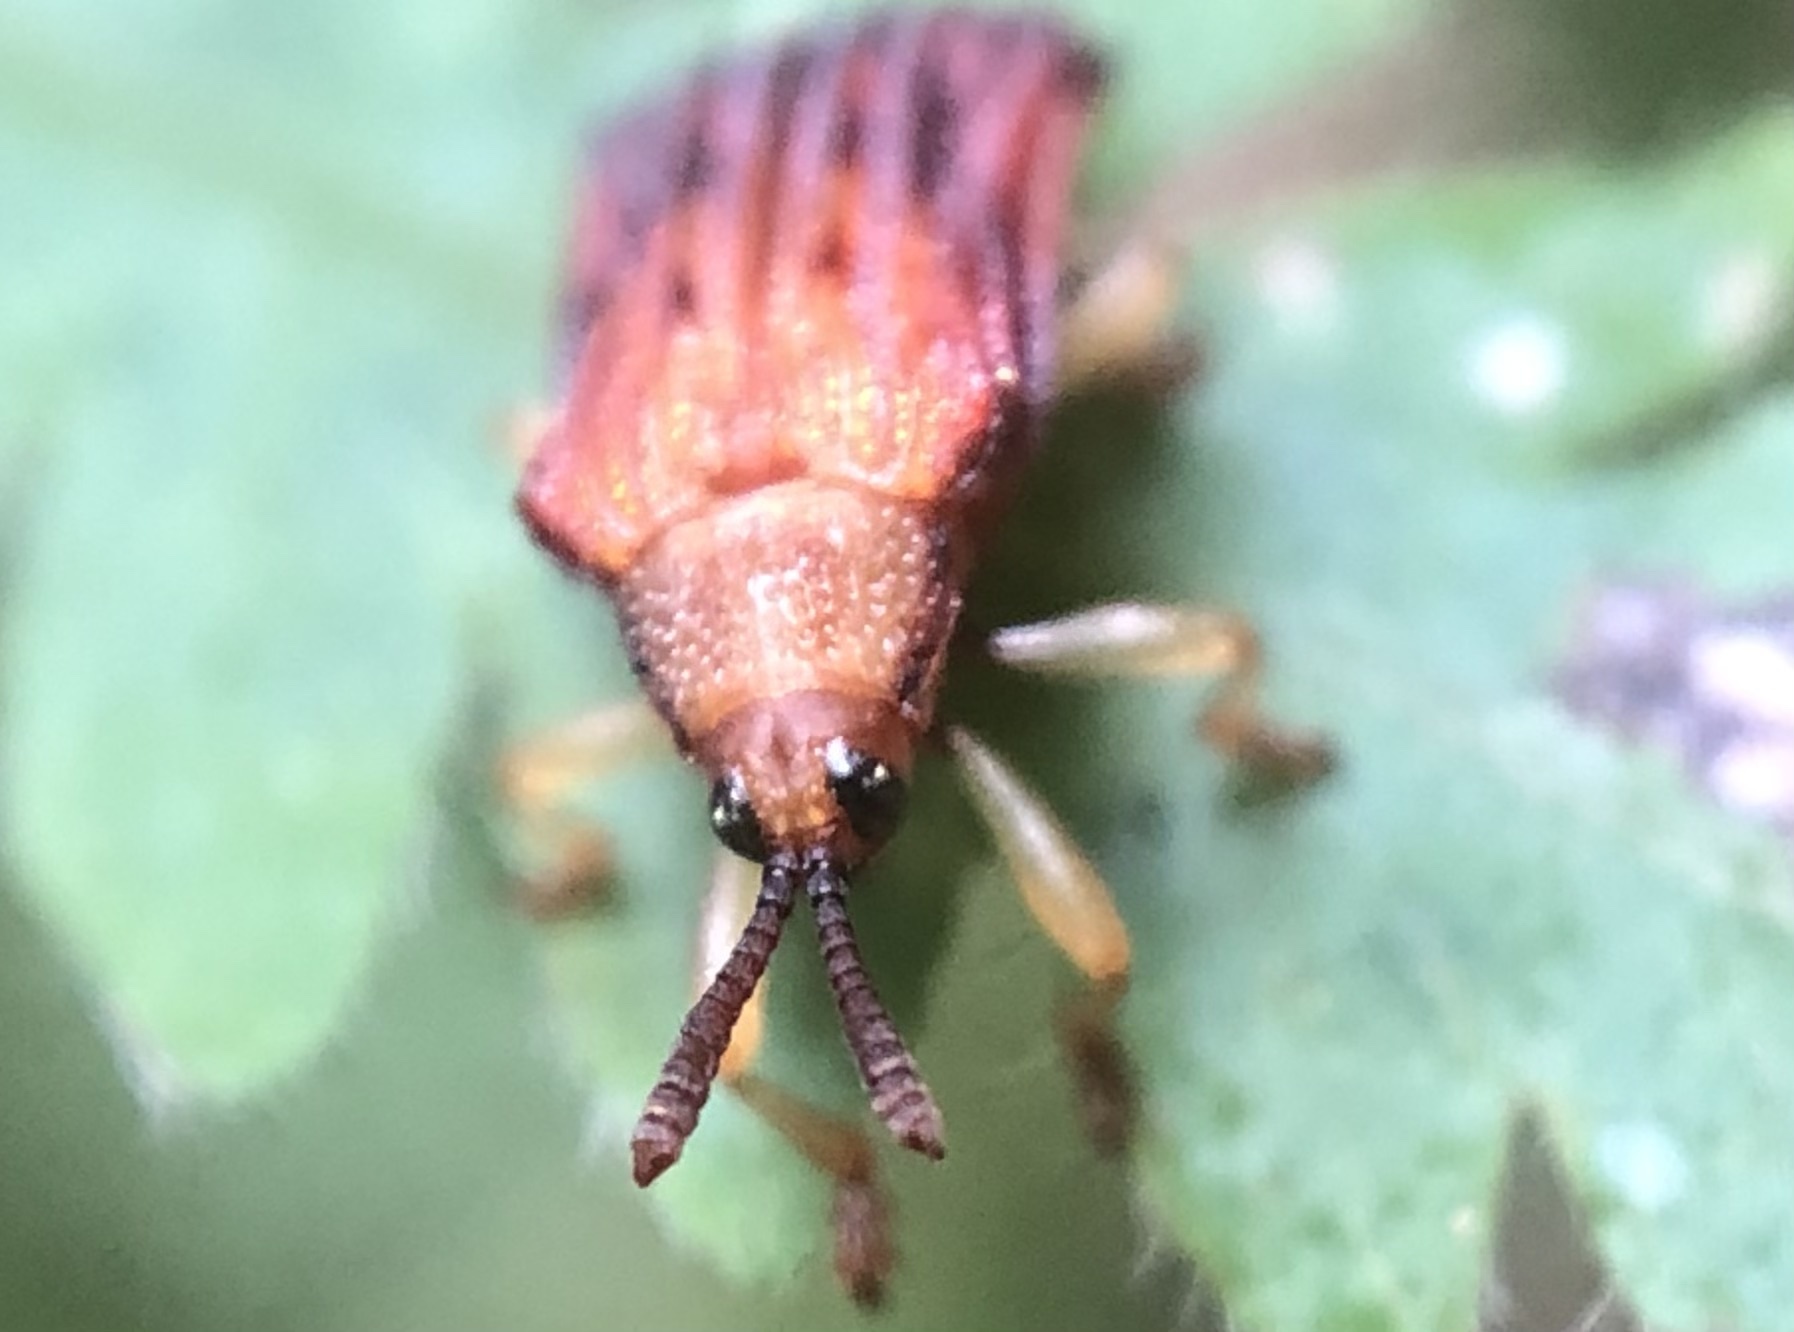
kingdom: Animalia
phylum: Arthropoda
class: Insecta
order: Coleoptera
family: Chrysomelidae
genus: Baliosus
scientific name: Baliosus nervosus
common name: Basswood leaf miner
